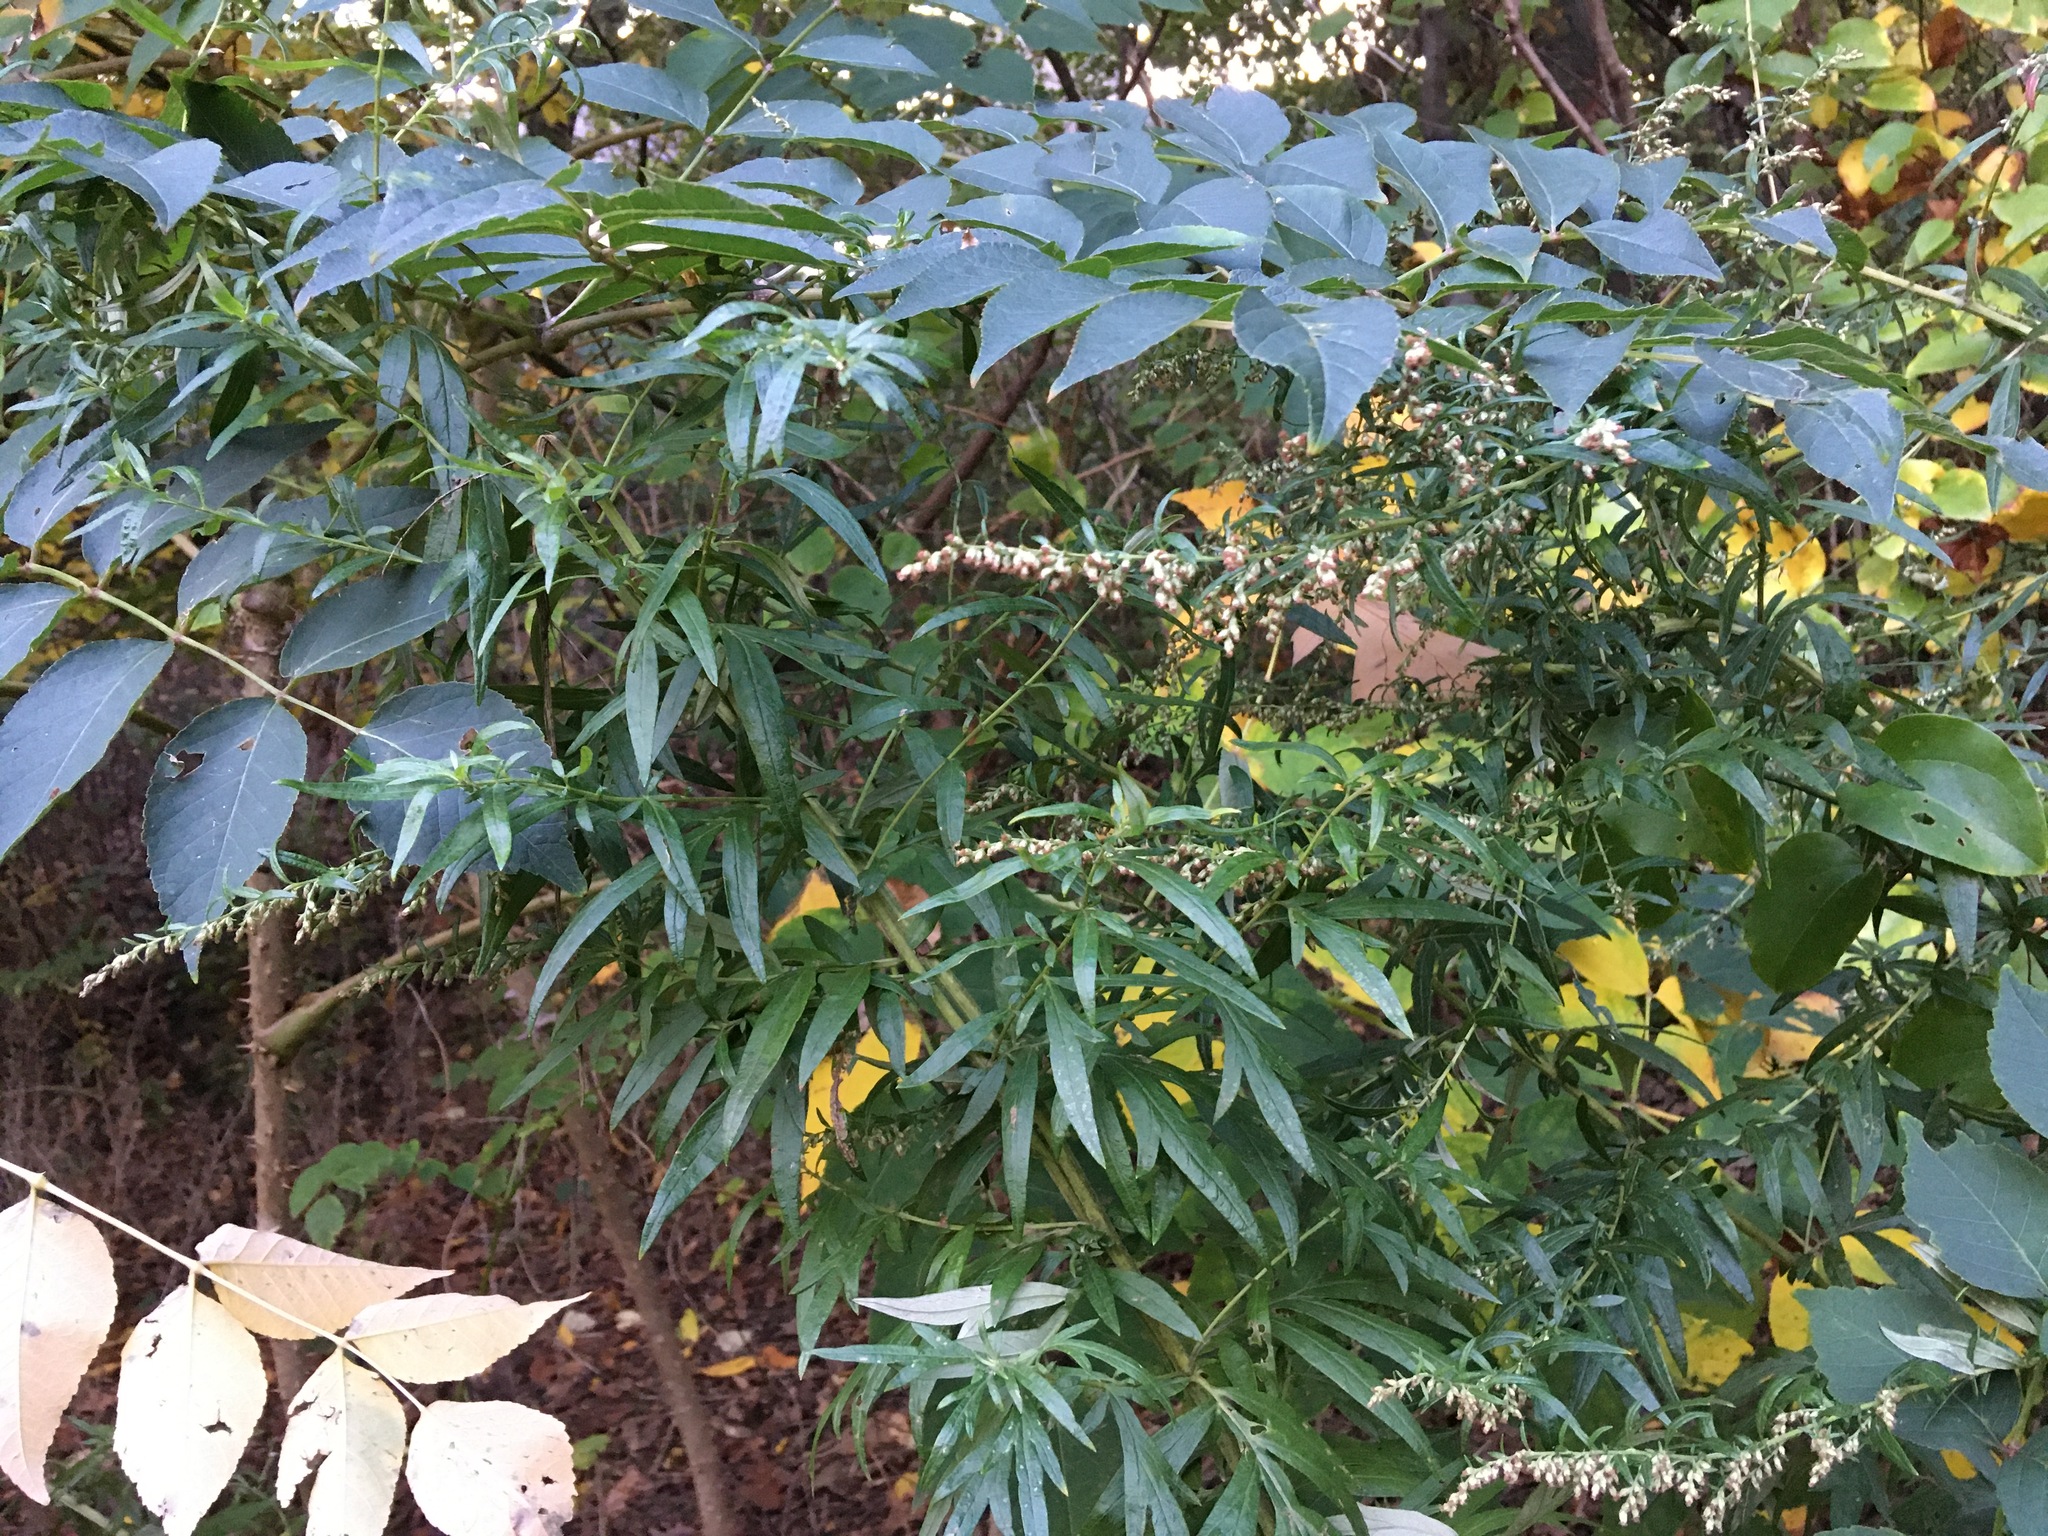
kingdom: Plantae
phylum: Tracheophyta
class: Magnoliopsida
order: Asterales
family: Asteraceae
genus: Artemisia
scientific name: Artemisia vulgaris
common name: Mugwort
